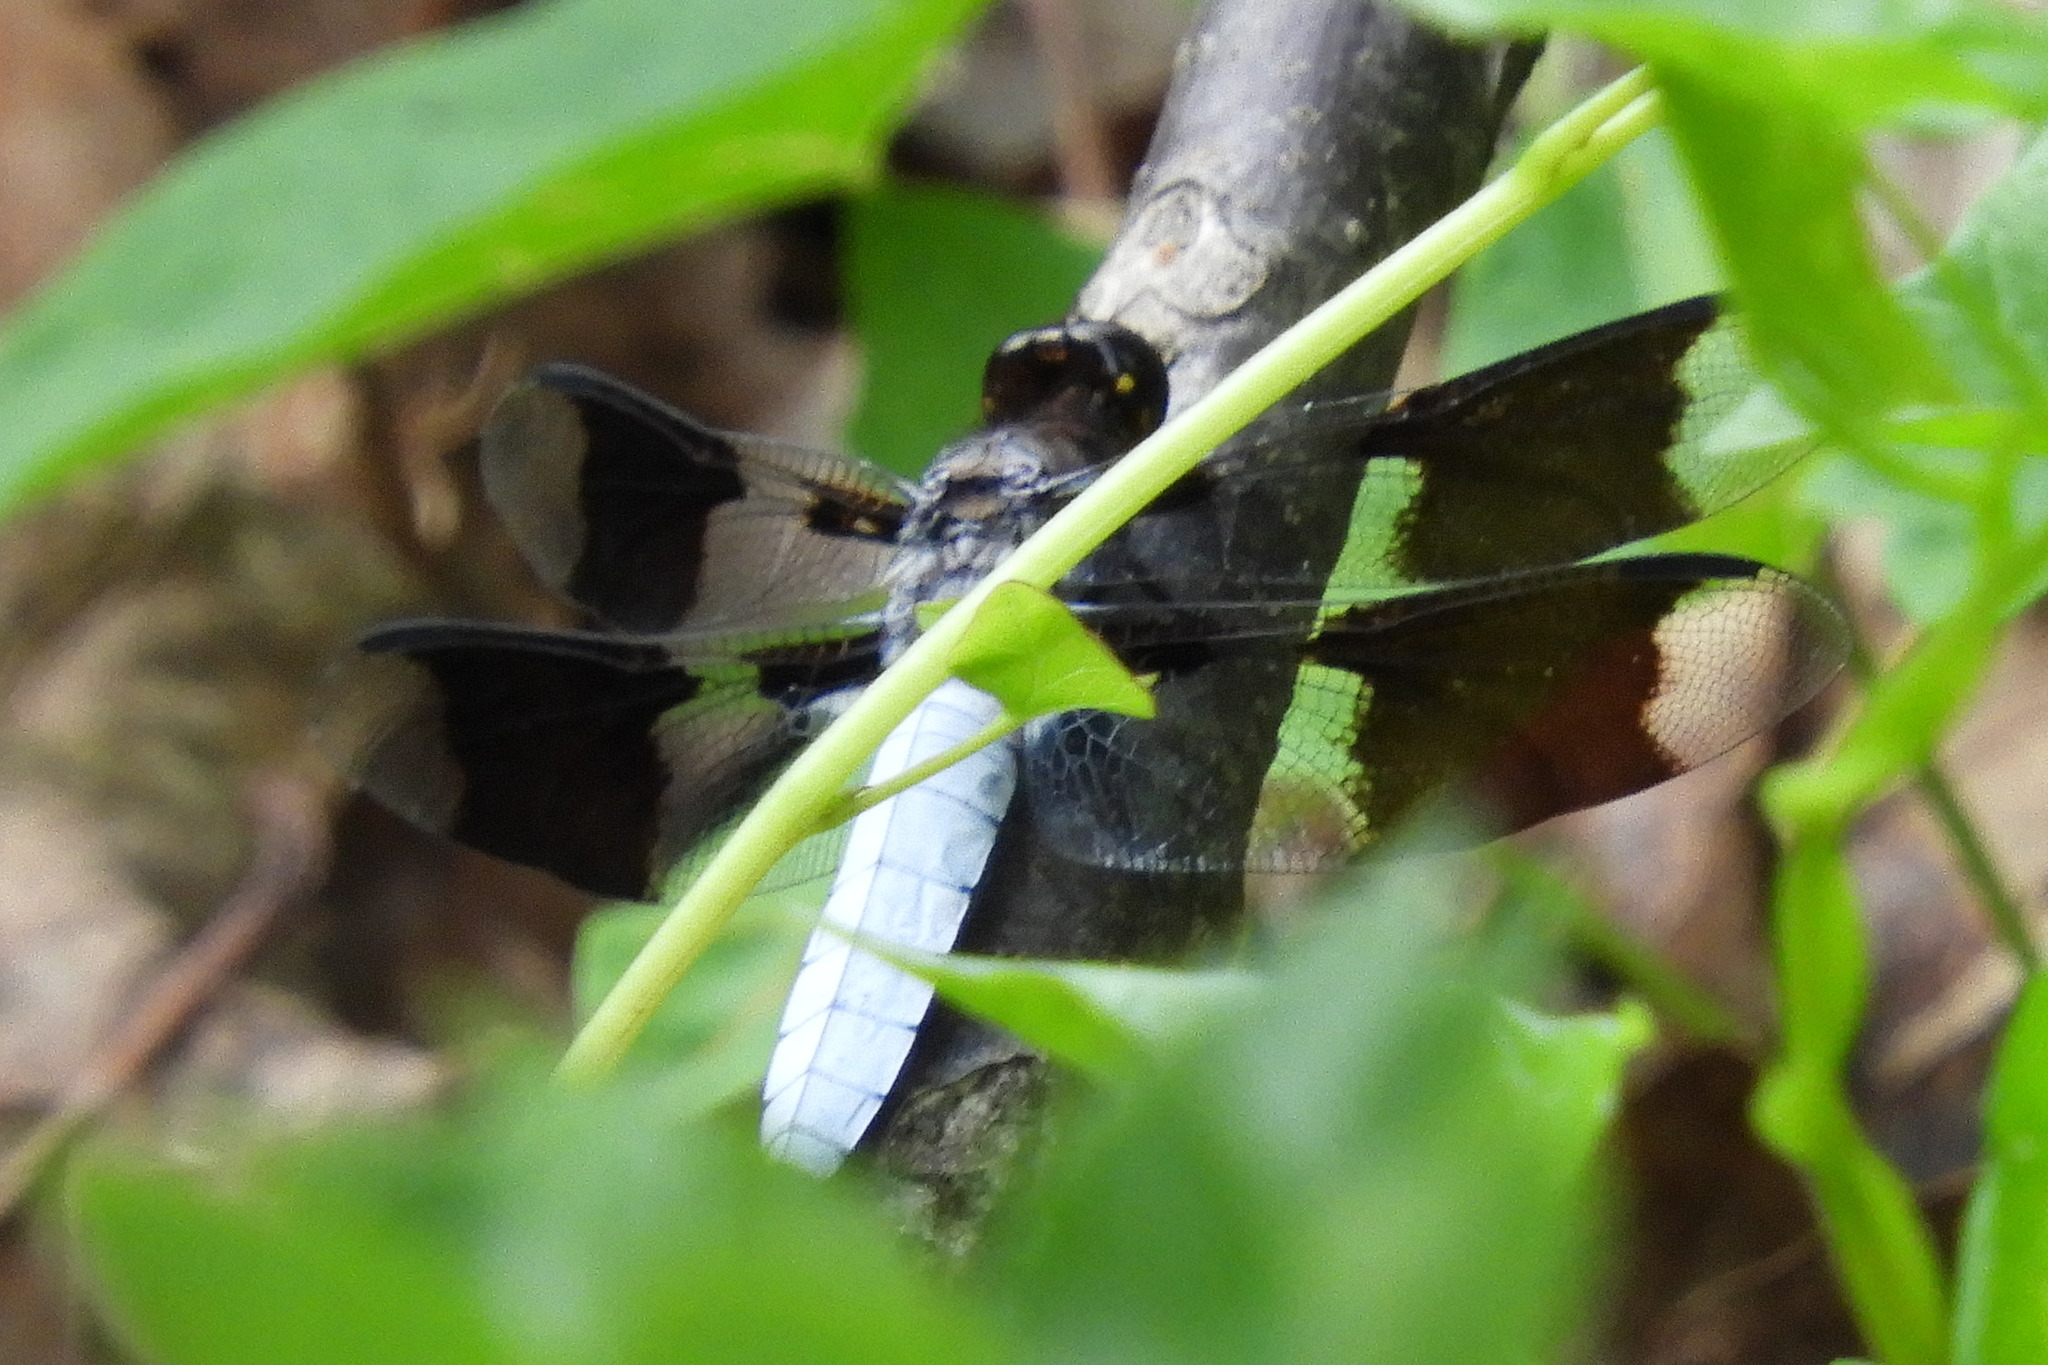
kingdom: Animalia
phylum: Arthropoda
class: Insecta
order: Odonata
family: Libellulidae
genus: Plathemis
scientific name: Plathemis lydia
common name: Common whitetail
